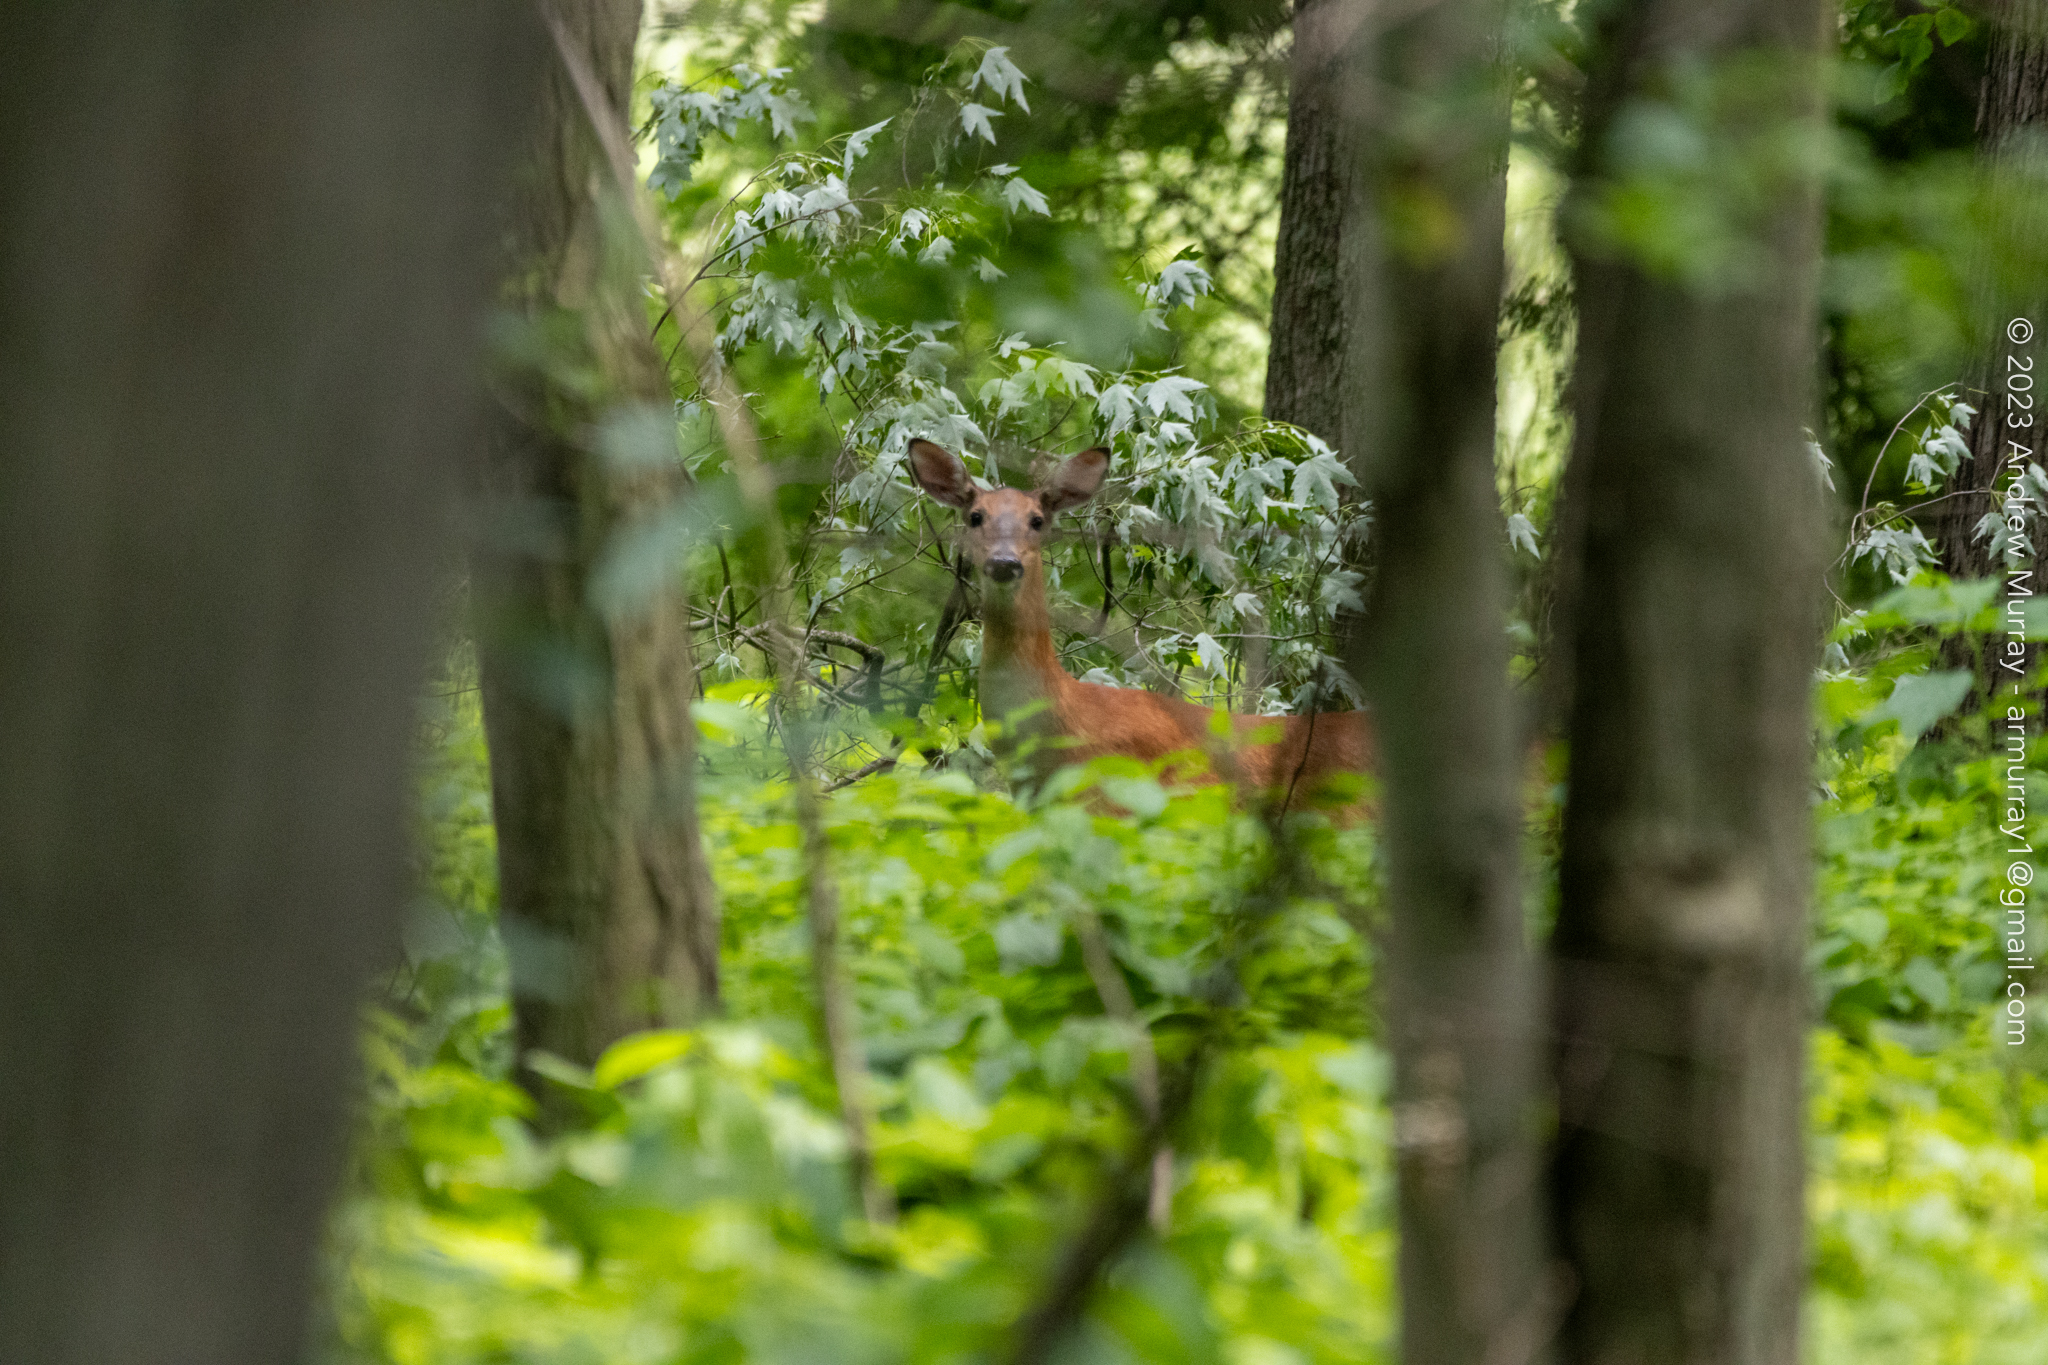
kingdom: Animalia
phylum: Chordata
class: Mammalia
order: Artiodactyla
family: Cervidae
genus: Odocoileus
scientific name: Odocoileus virginianus
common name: White-tailed deer
